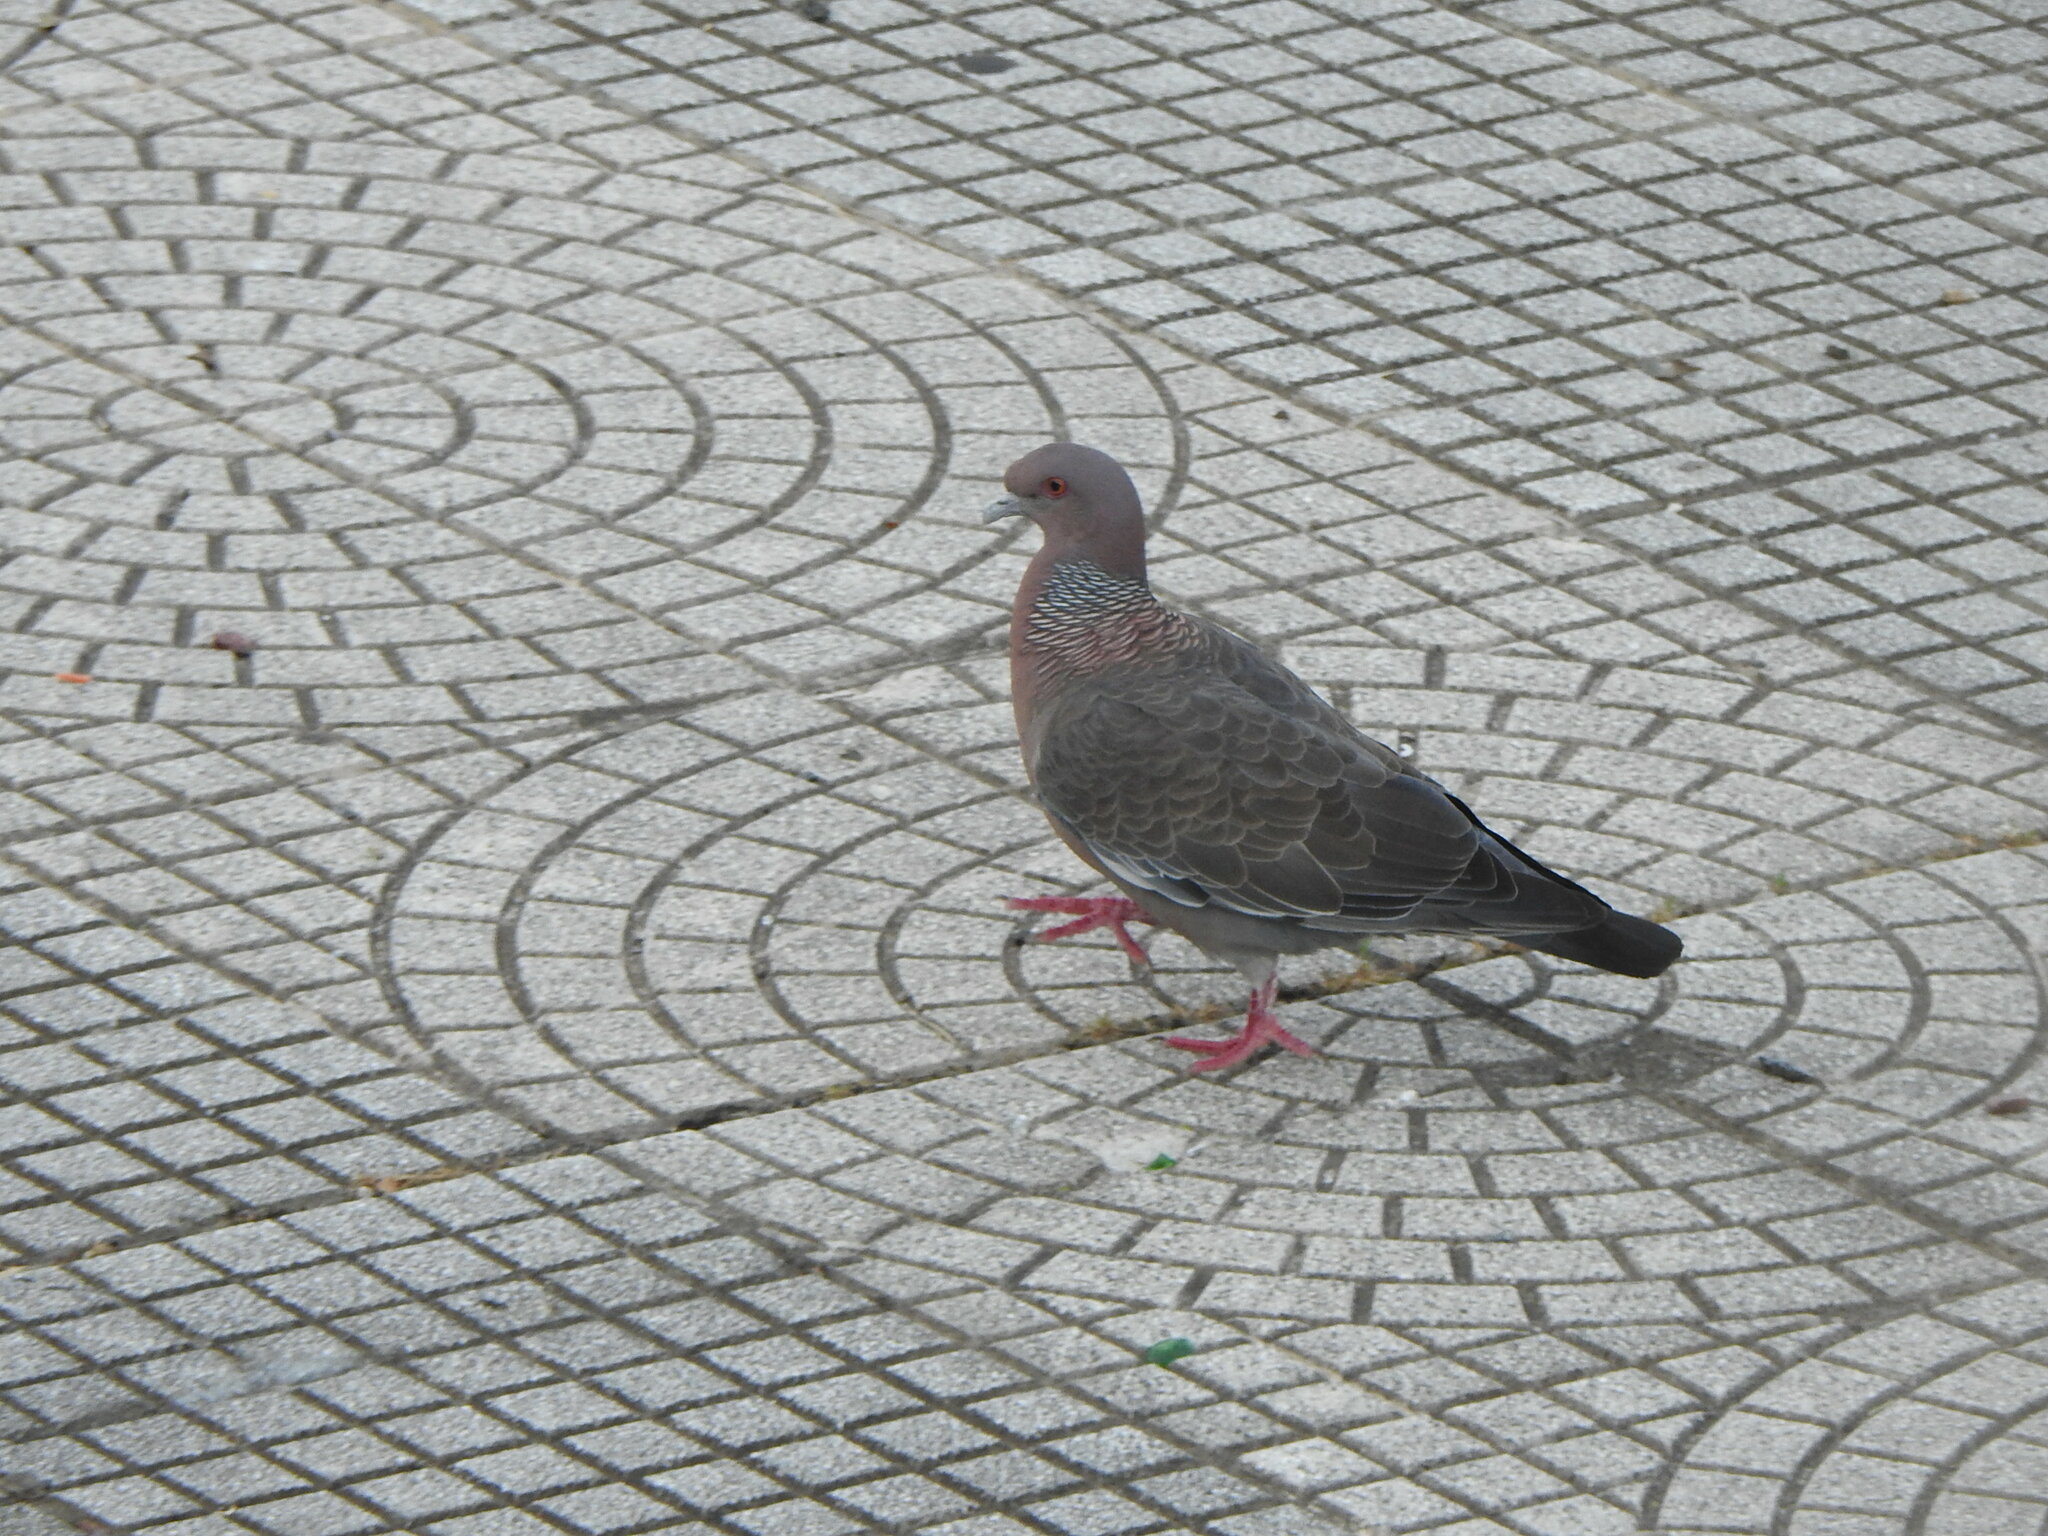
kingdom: Animalia
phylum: Chordata
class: Aves
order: Columbiformes
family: Columbidae
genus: Patagioenas
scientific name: Patagioenas picazuro
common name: Picazuro pigeon
